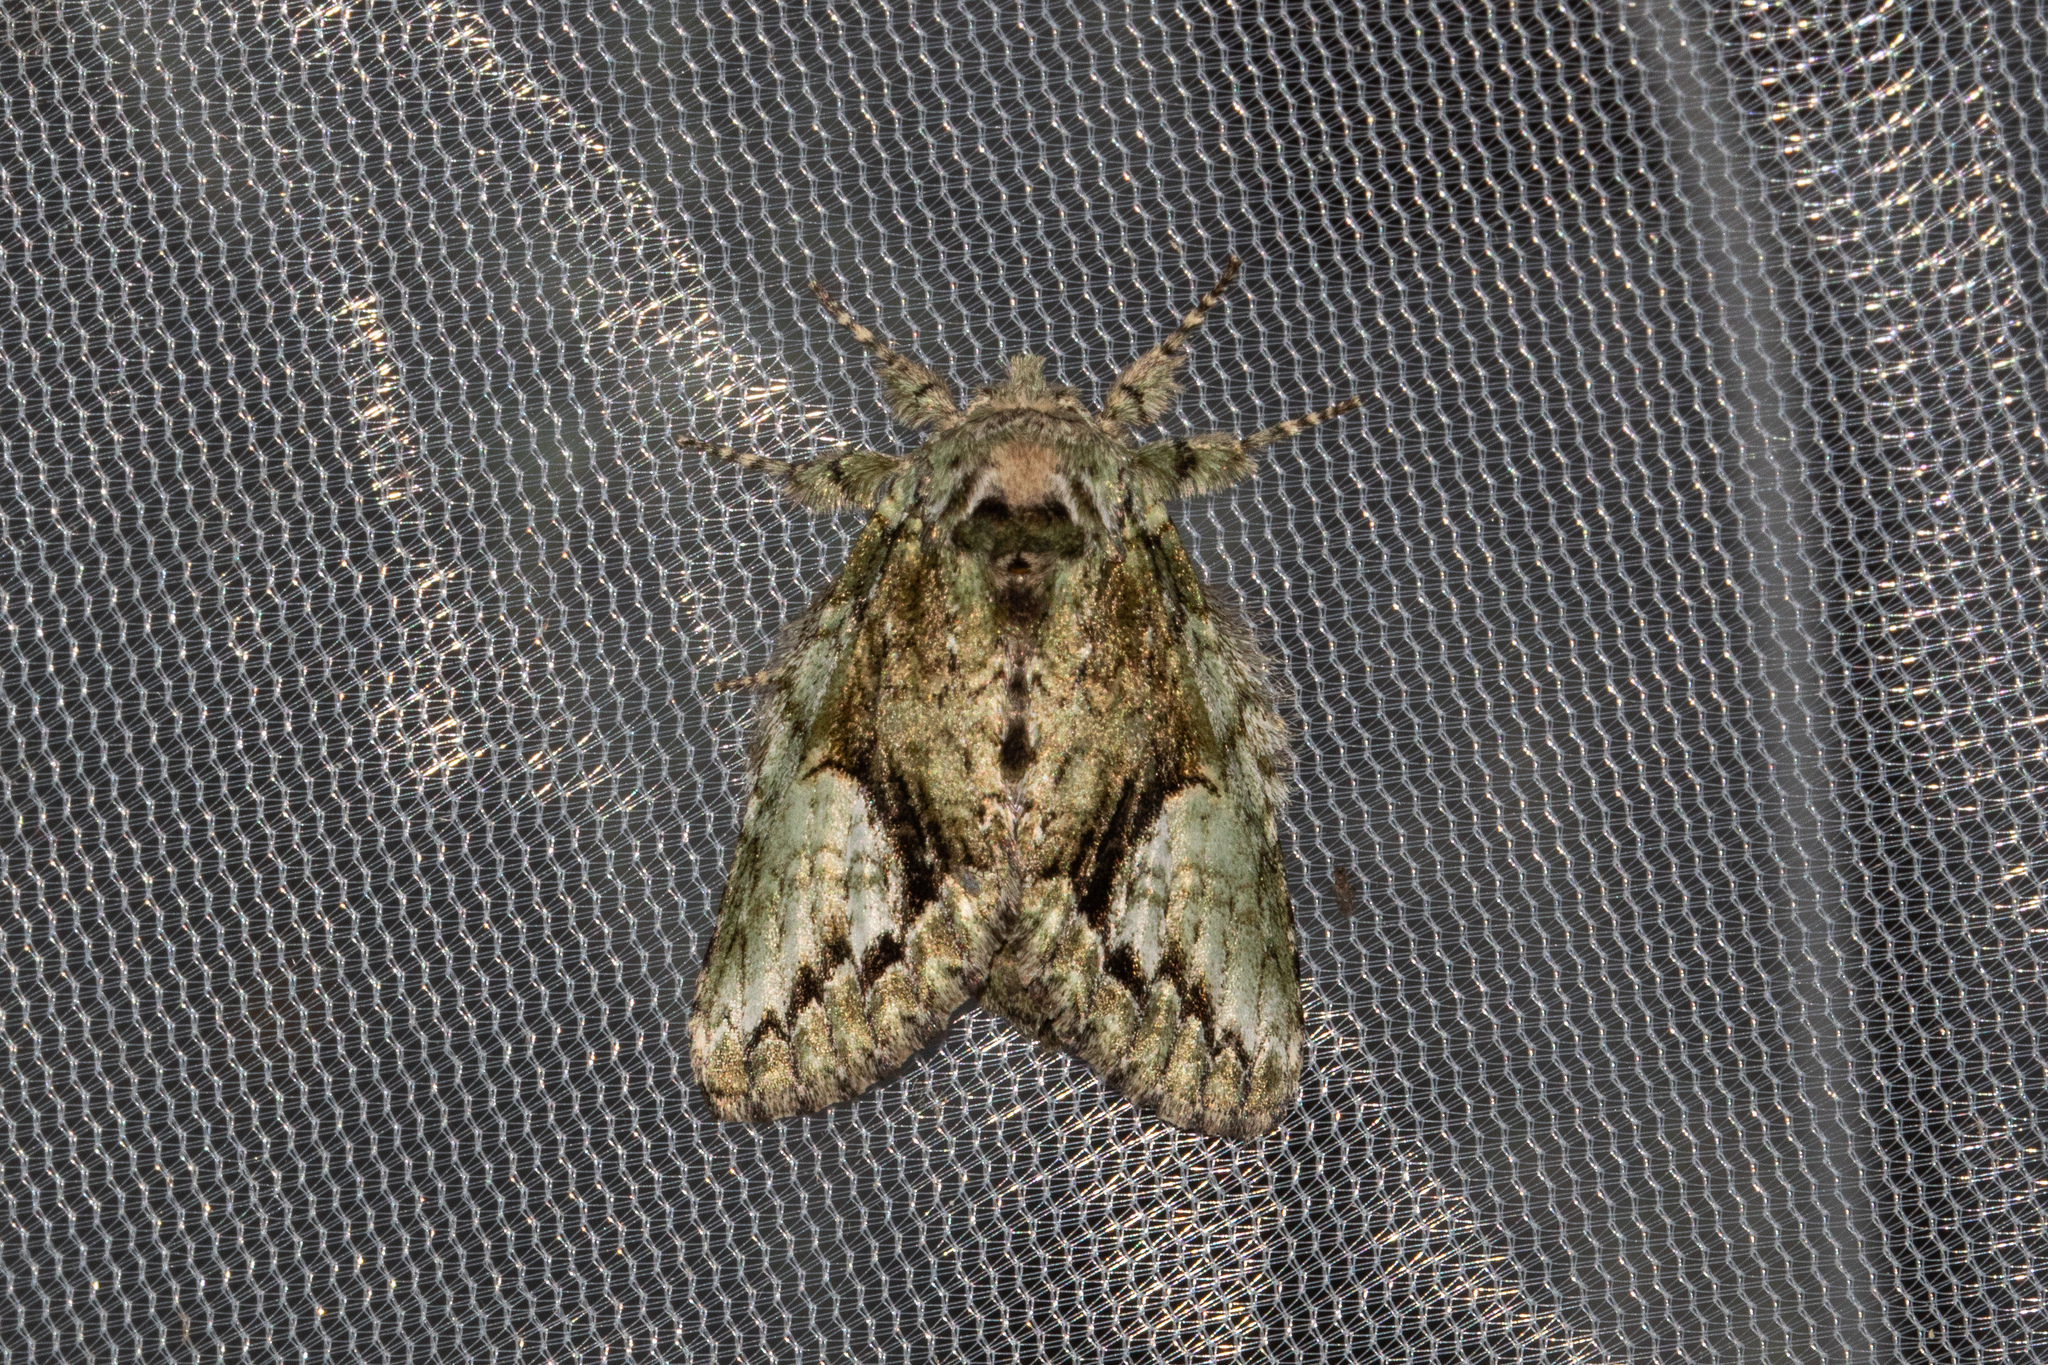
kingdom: Animalia
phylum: Arthropoda
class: Insecta
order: Lepidoptera
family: Notodontidae
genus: Heterocampa
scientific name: Heterocampa
